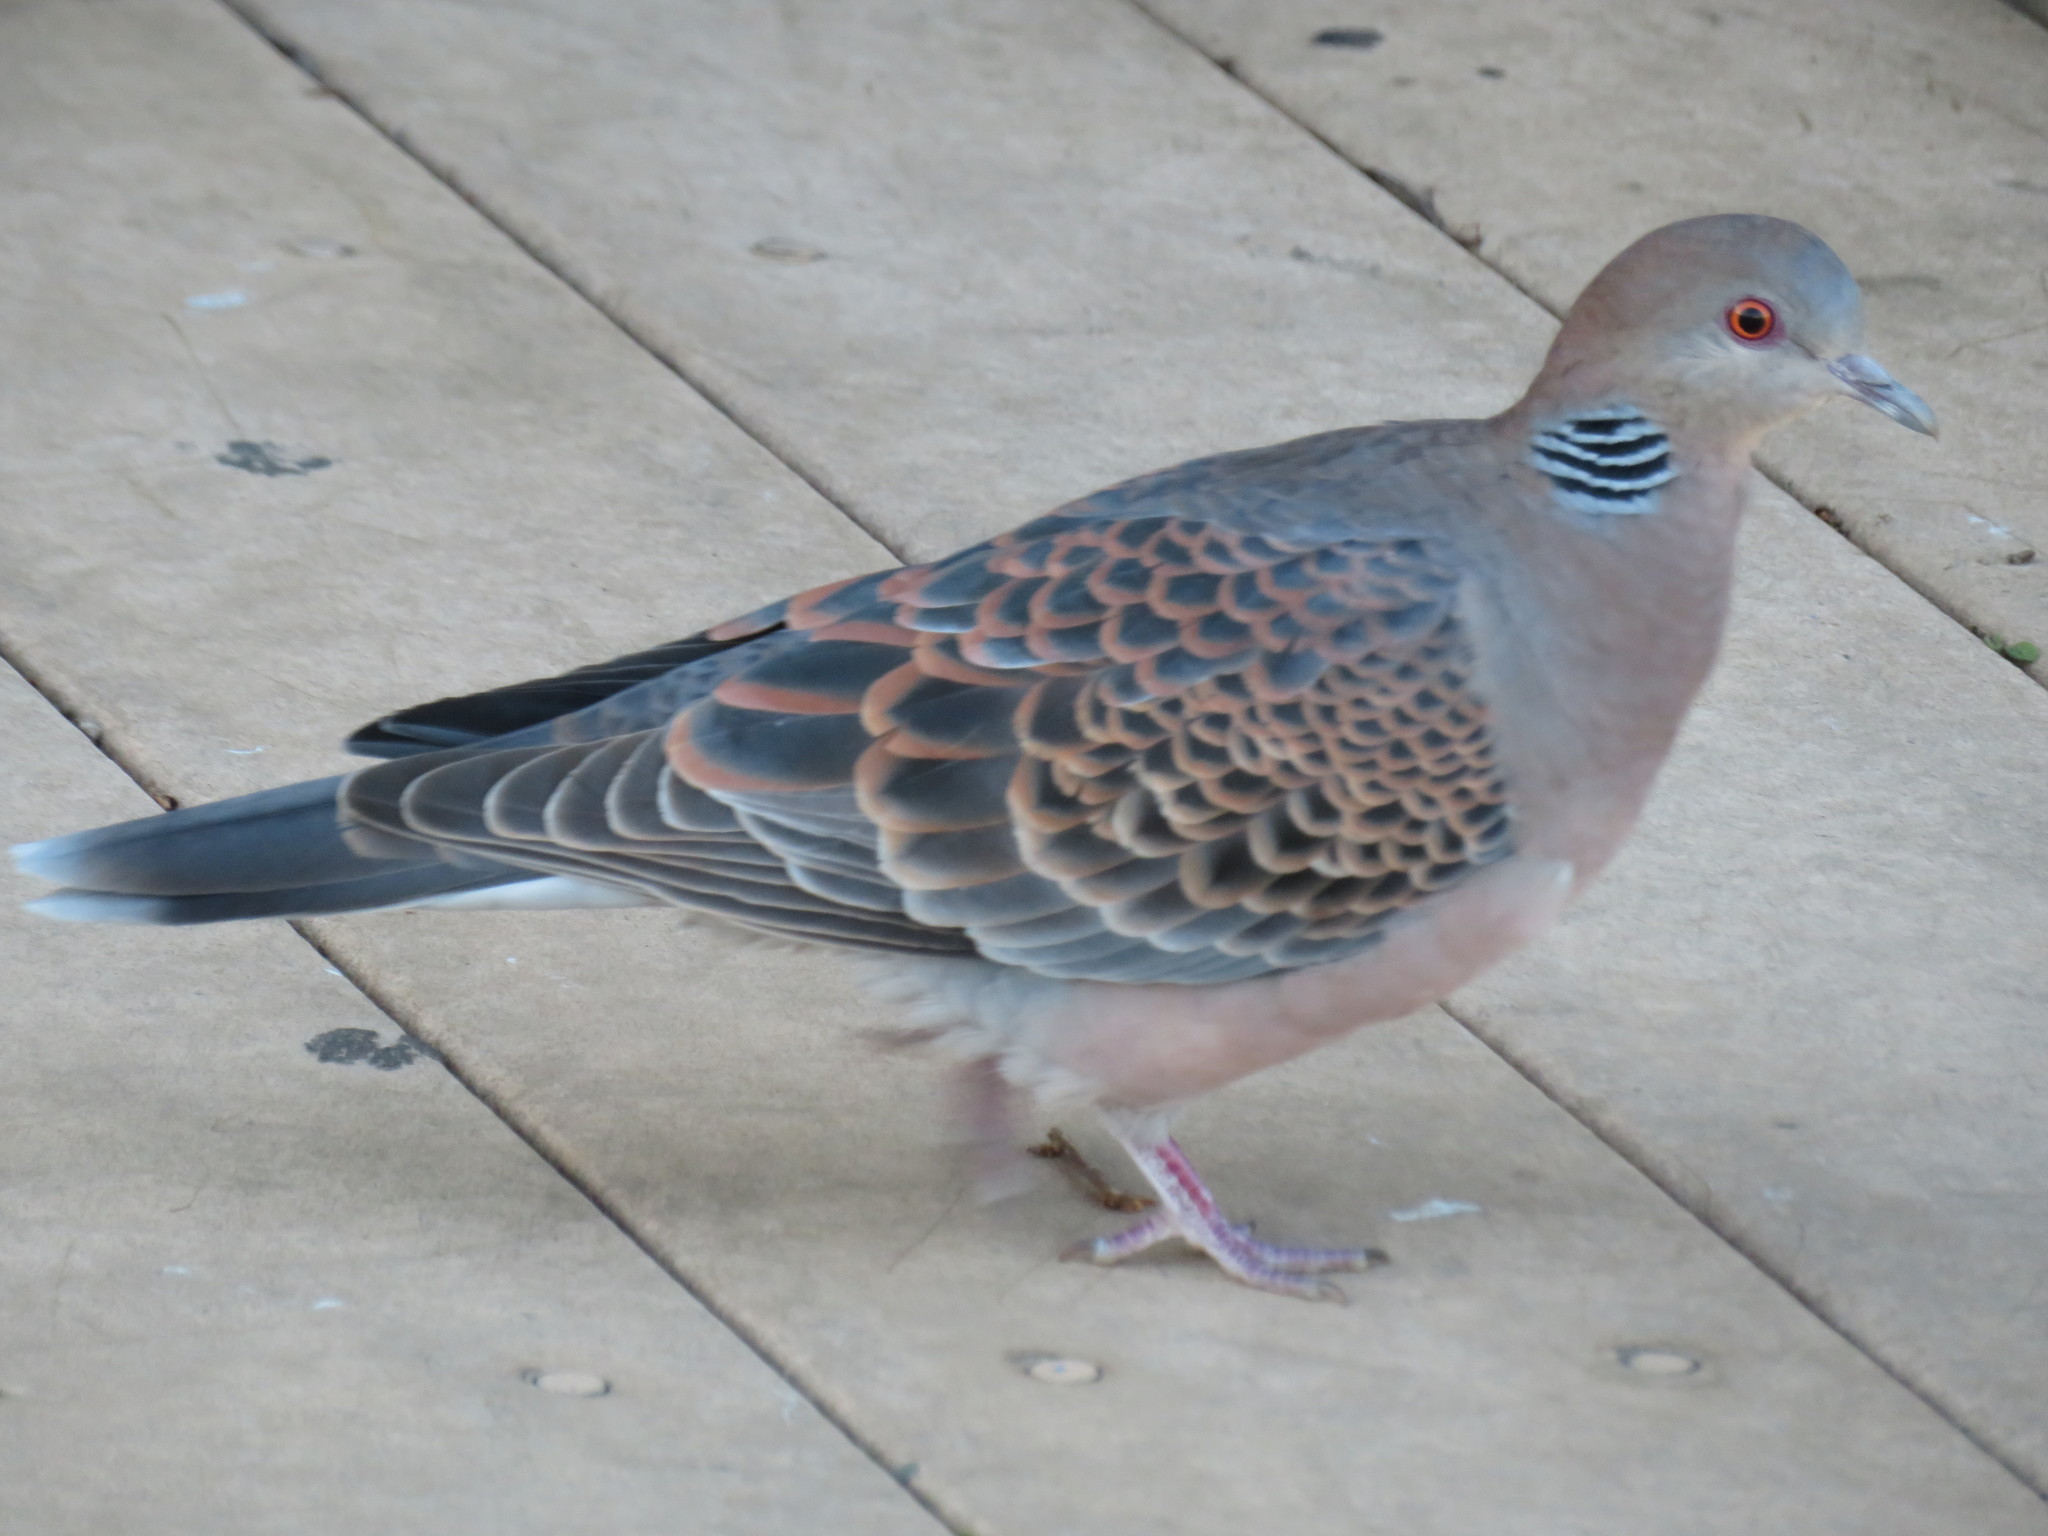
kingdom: Animalia
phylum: Chordata
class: Aves
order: Columbiformes
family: Columbidae
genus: Streptopelia
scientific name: Streptopelia orientalis
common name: Oriental turtle dove
